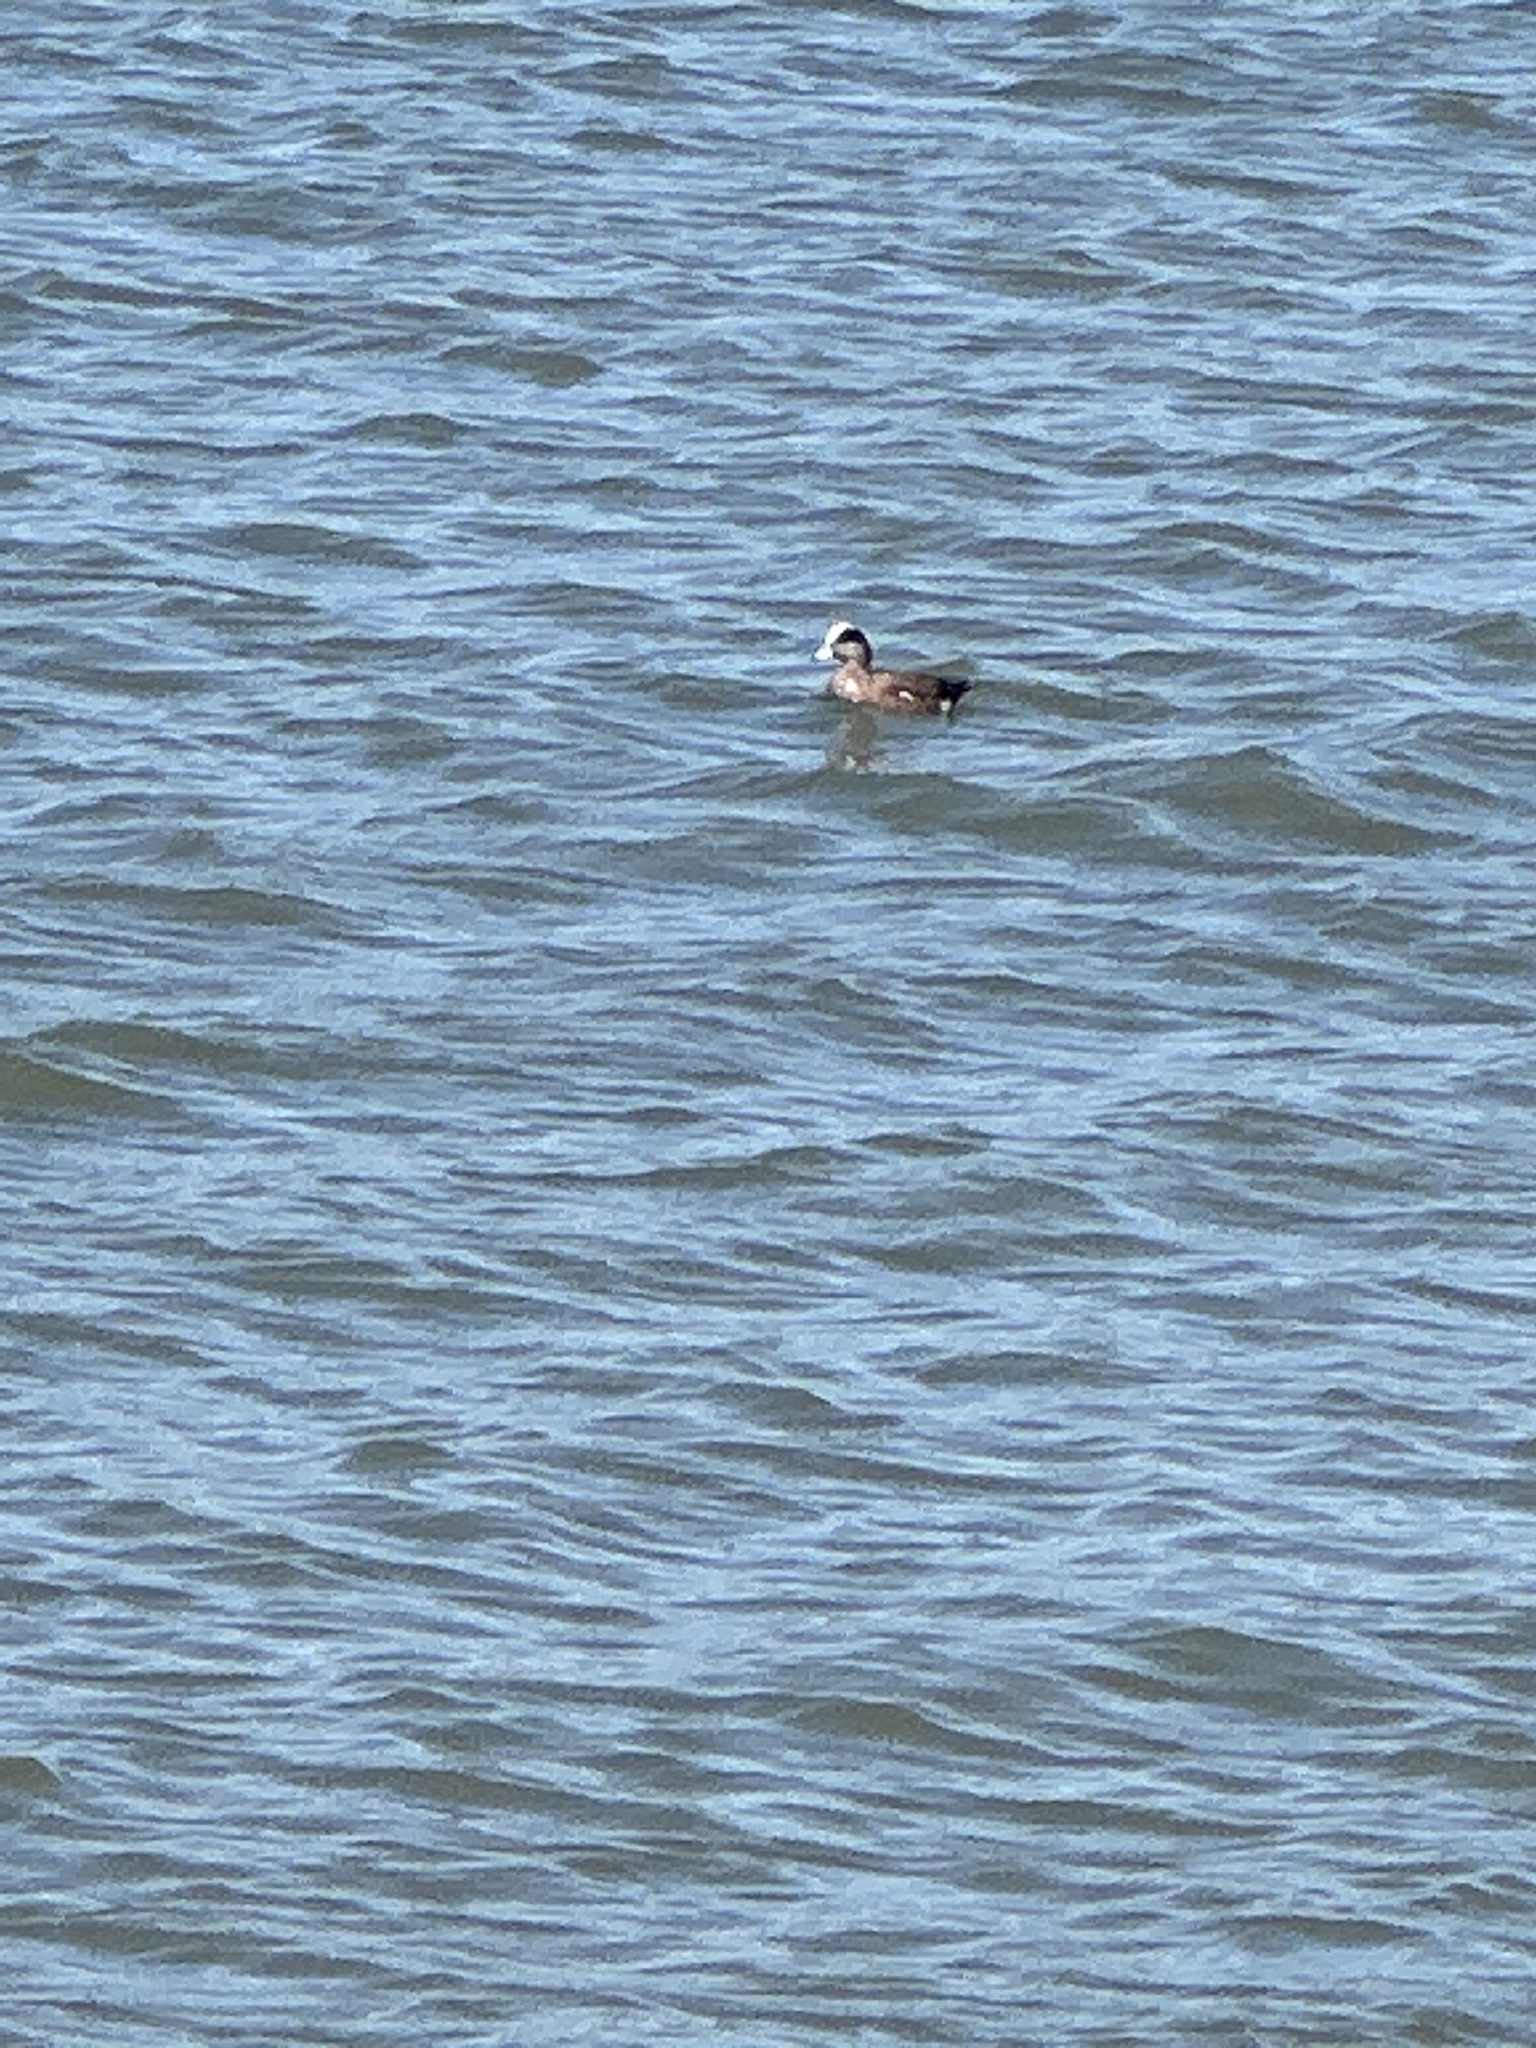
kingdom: Animalia
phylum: Chordata
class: Aves
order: Anseriformes
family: Anatidae
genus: Mareca
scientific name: Mareca americana
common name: American wigeon
